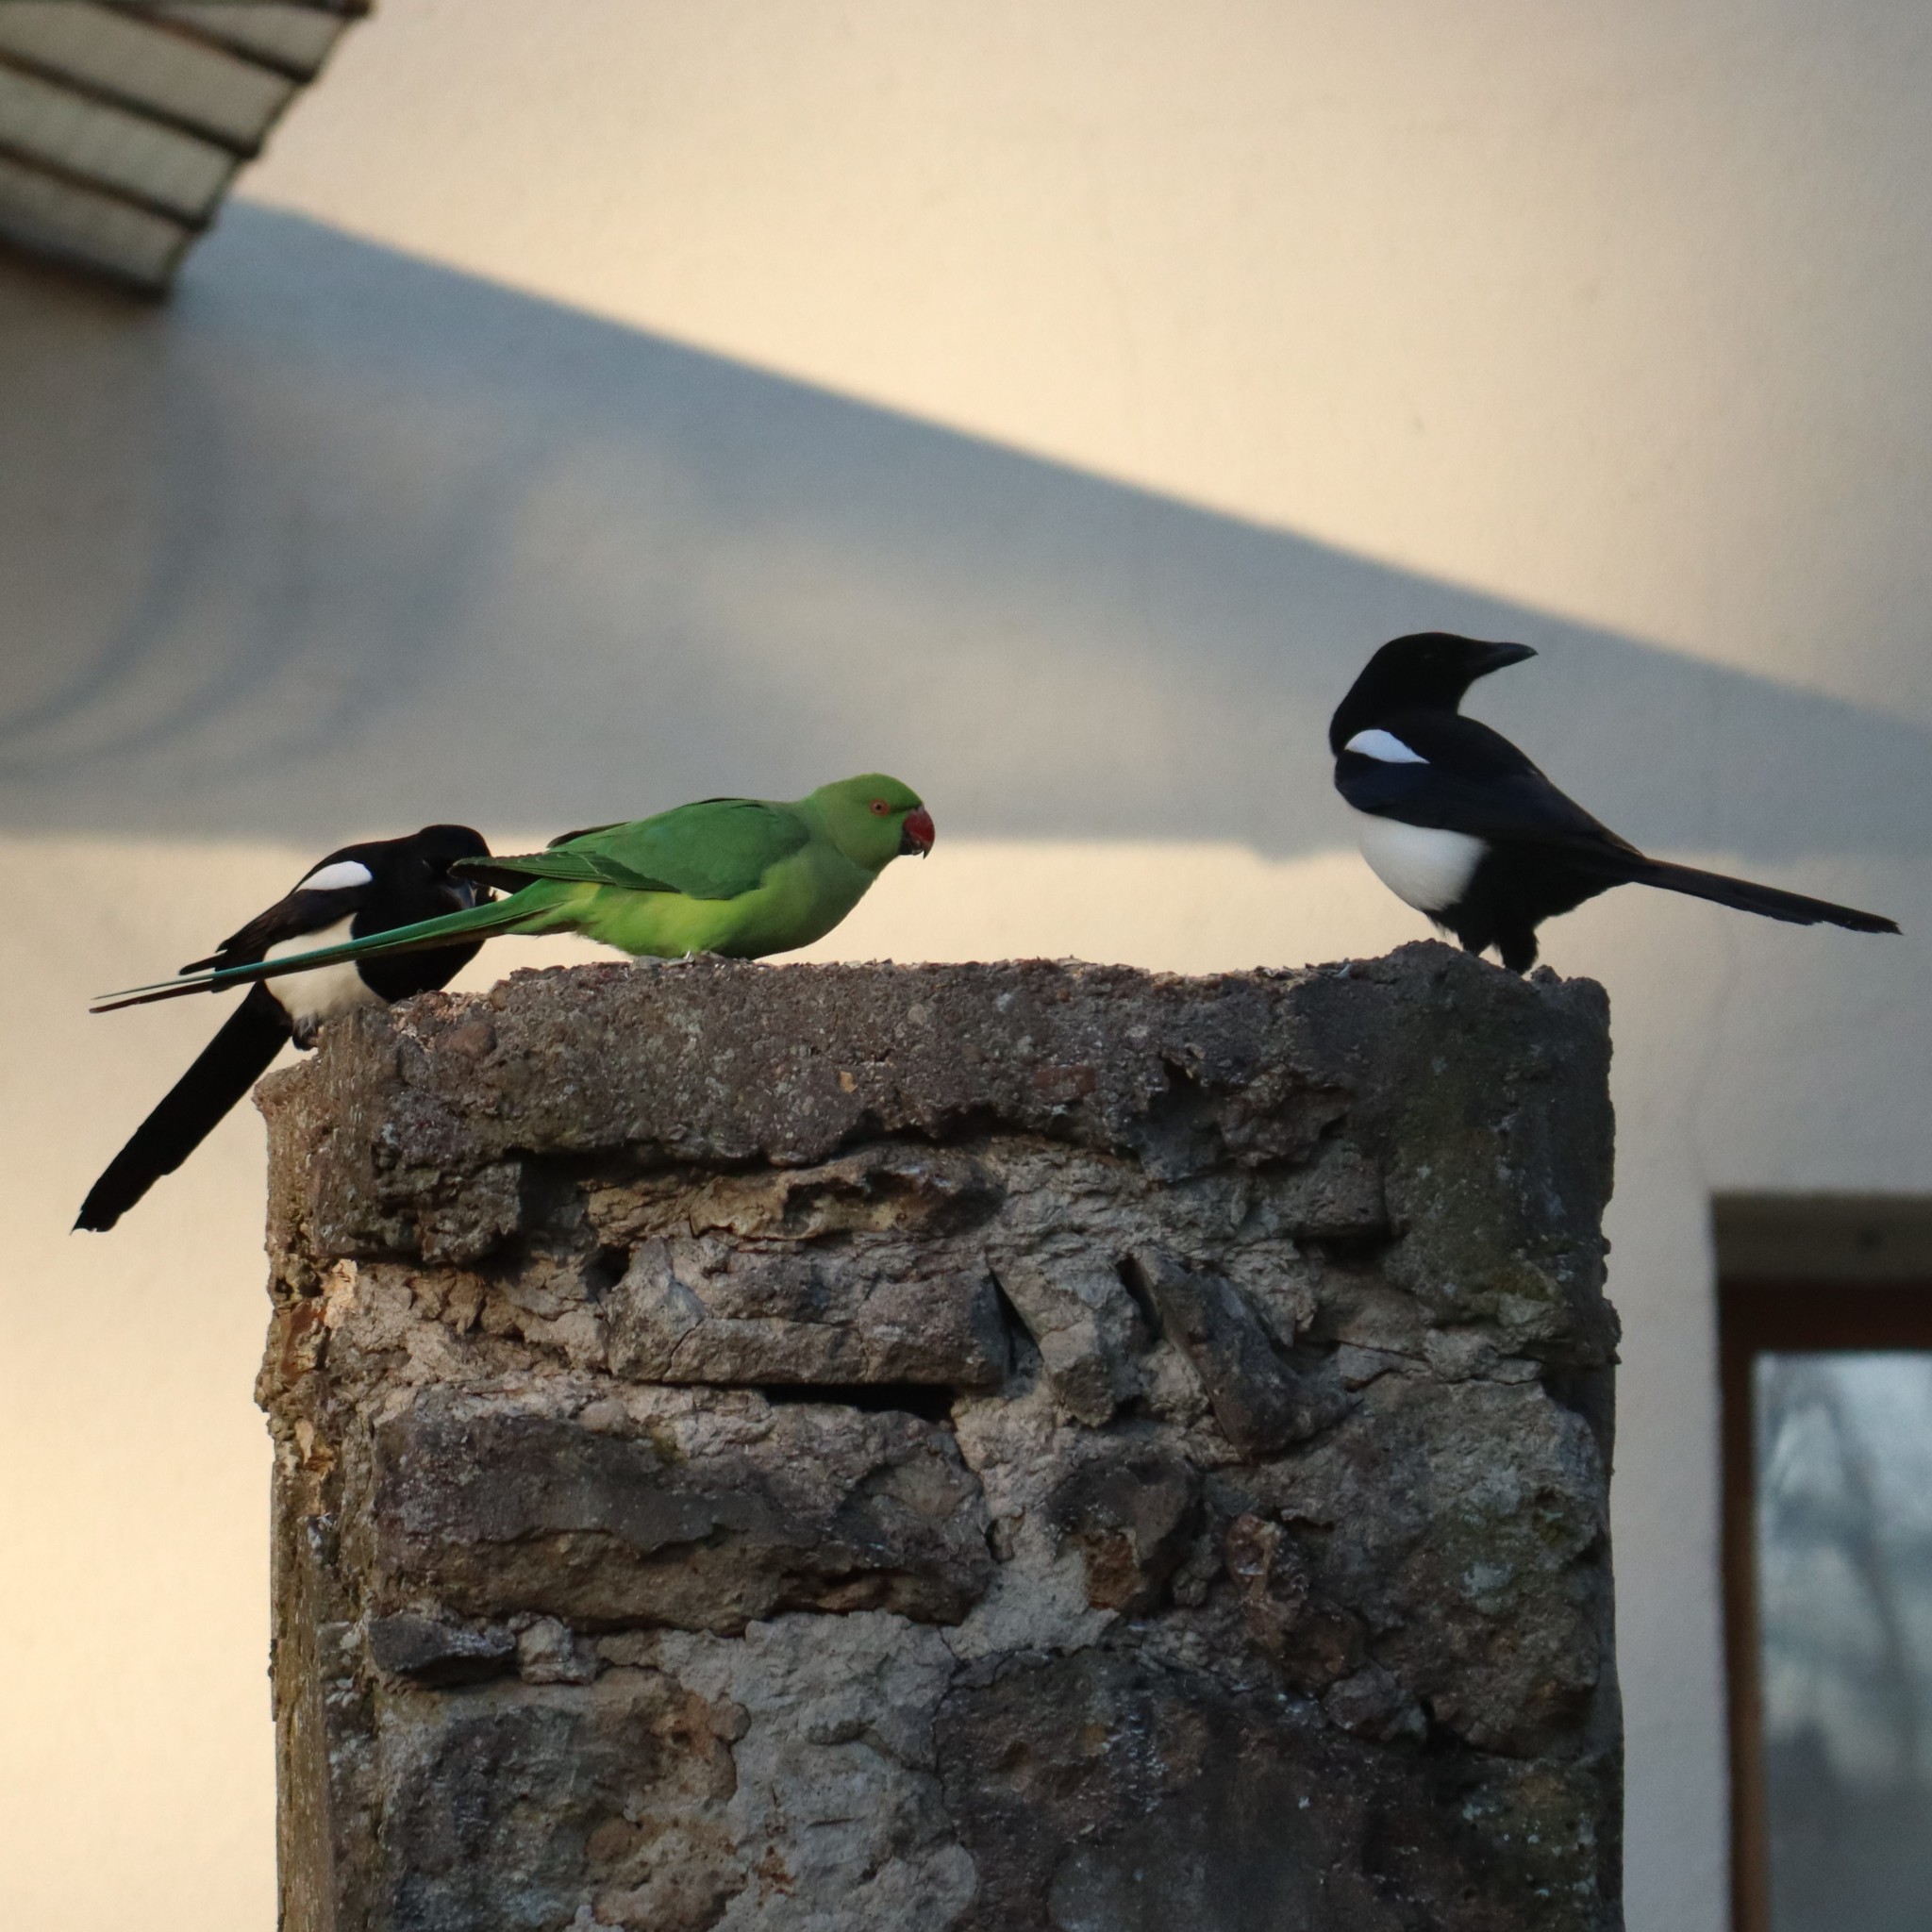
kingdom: Animalia
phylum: Chordata
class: Aves
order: Psittaciformes
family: Psittacidae
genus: Psittacula
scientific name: Psittacula krameri
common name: Rose-ringed parakeet
